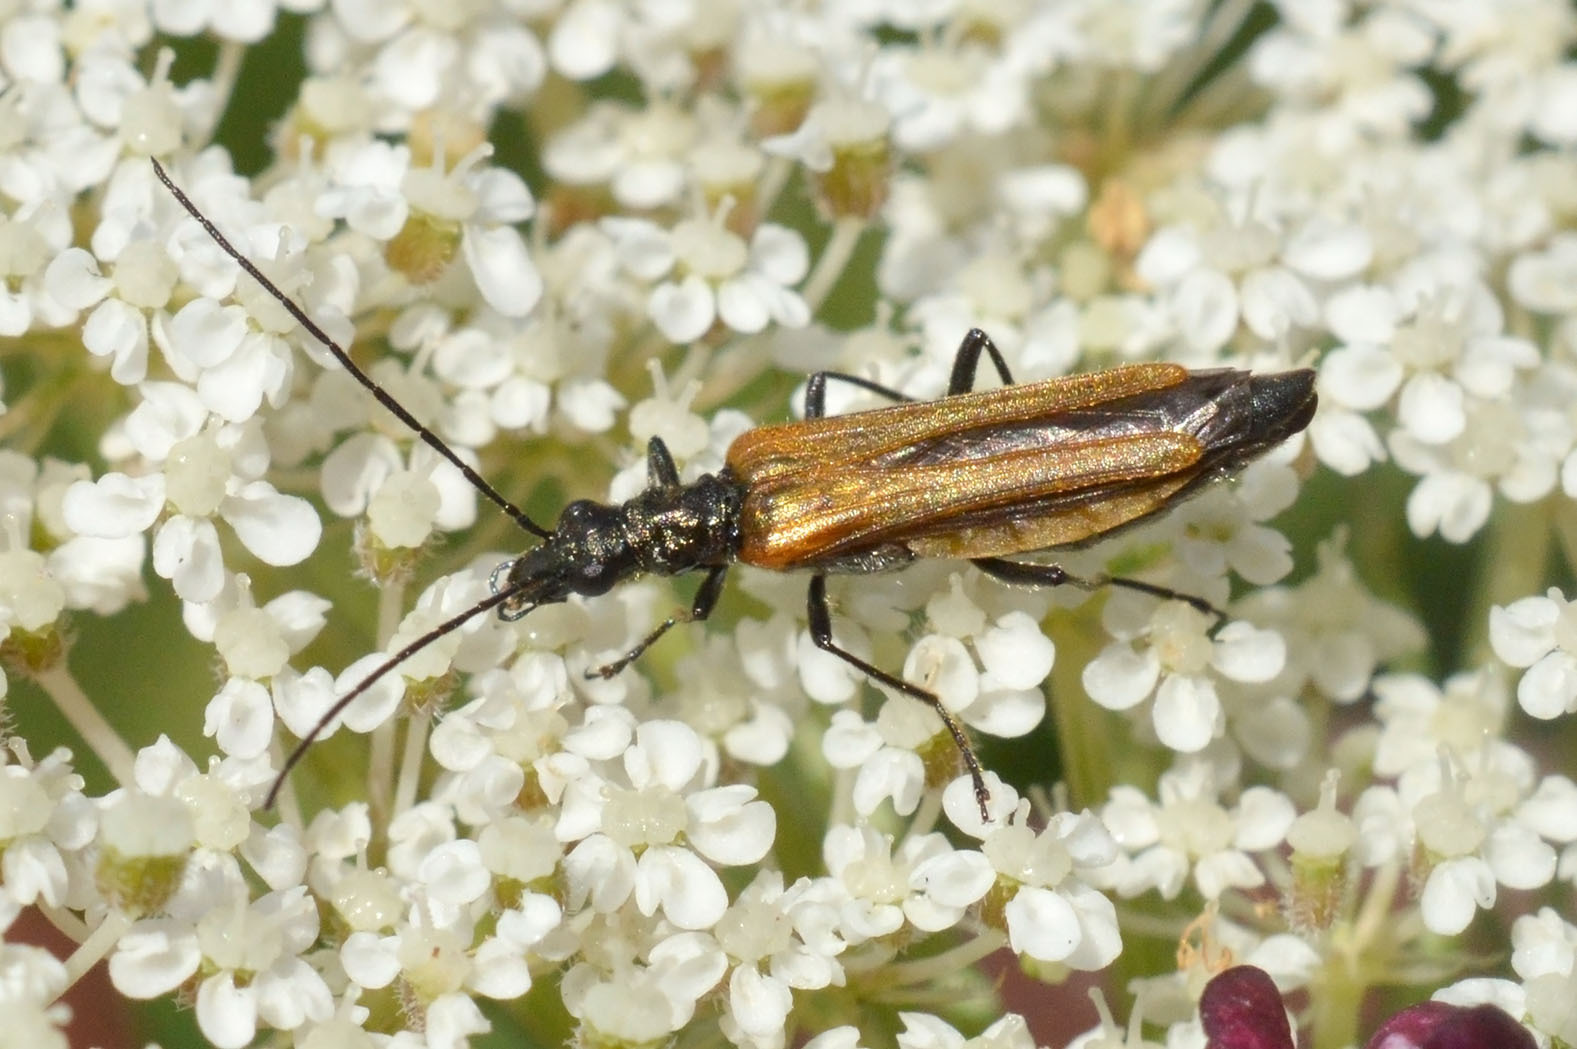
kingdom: Animalia
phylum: Arthropoda
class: Insecta
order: Coleoptera
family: Oedemeridae
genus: Oedemera
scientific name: Oedemera femorata
